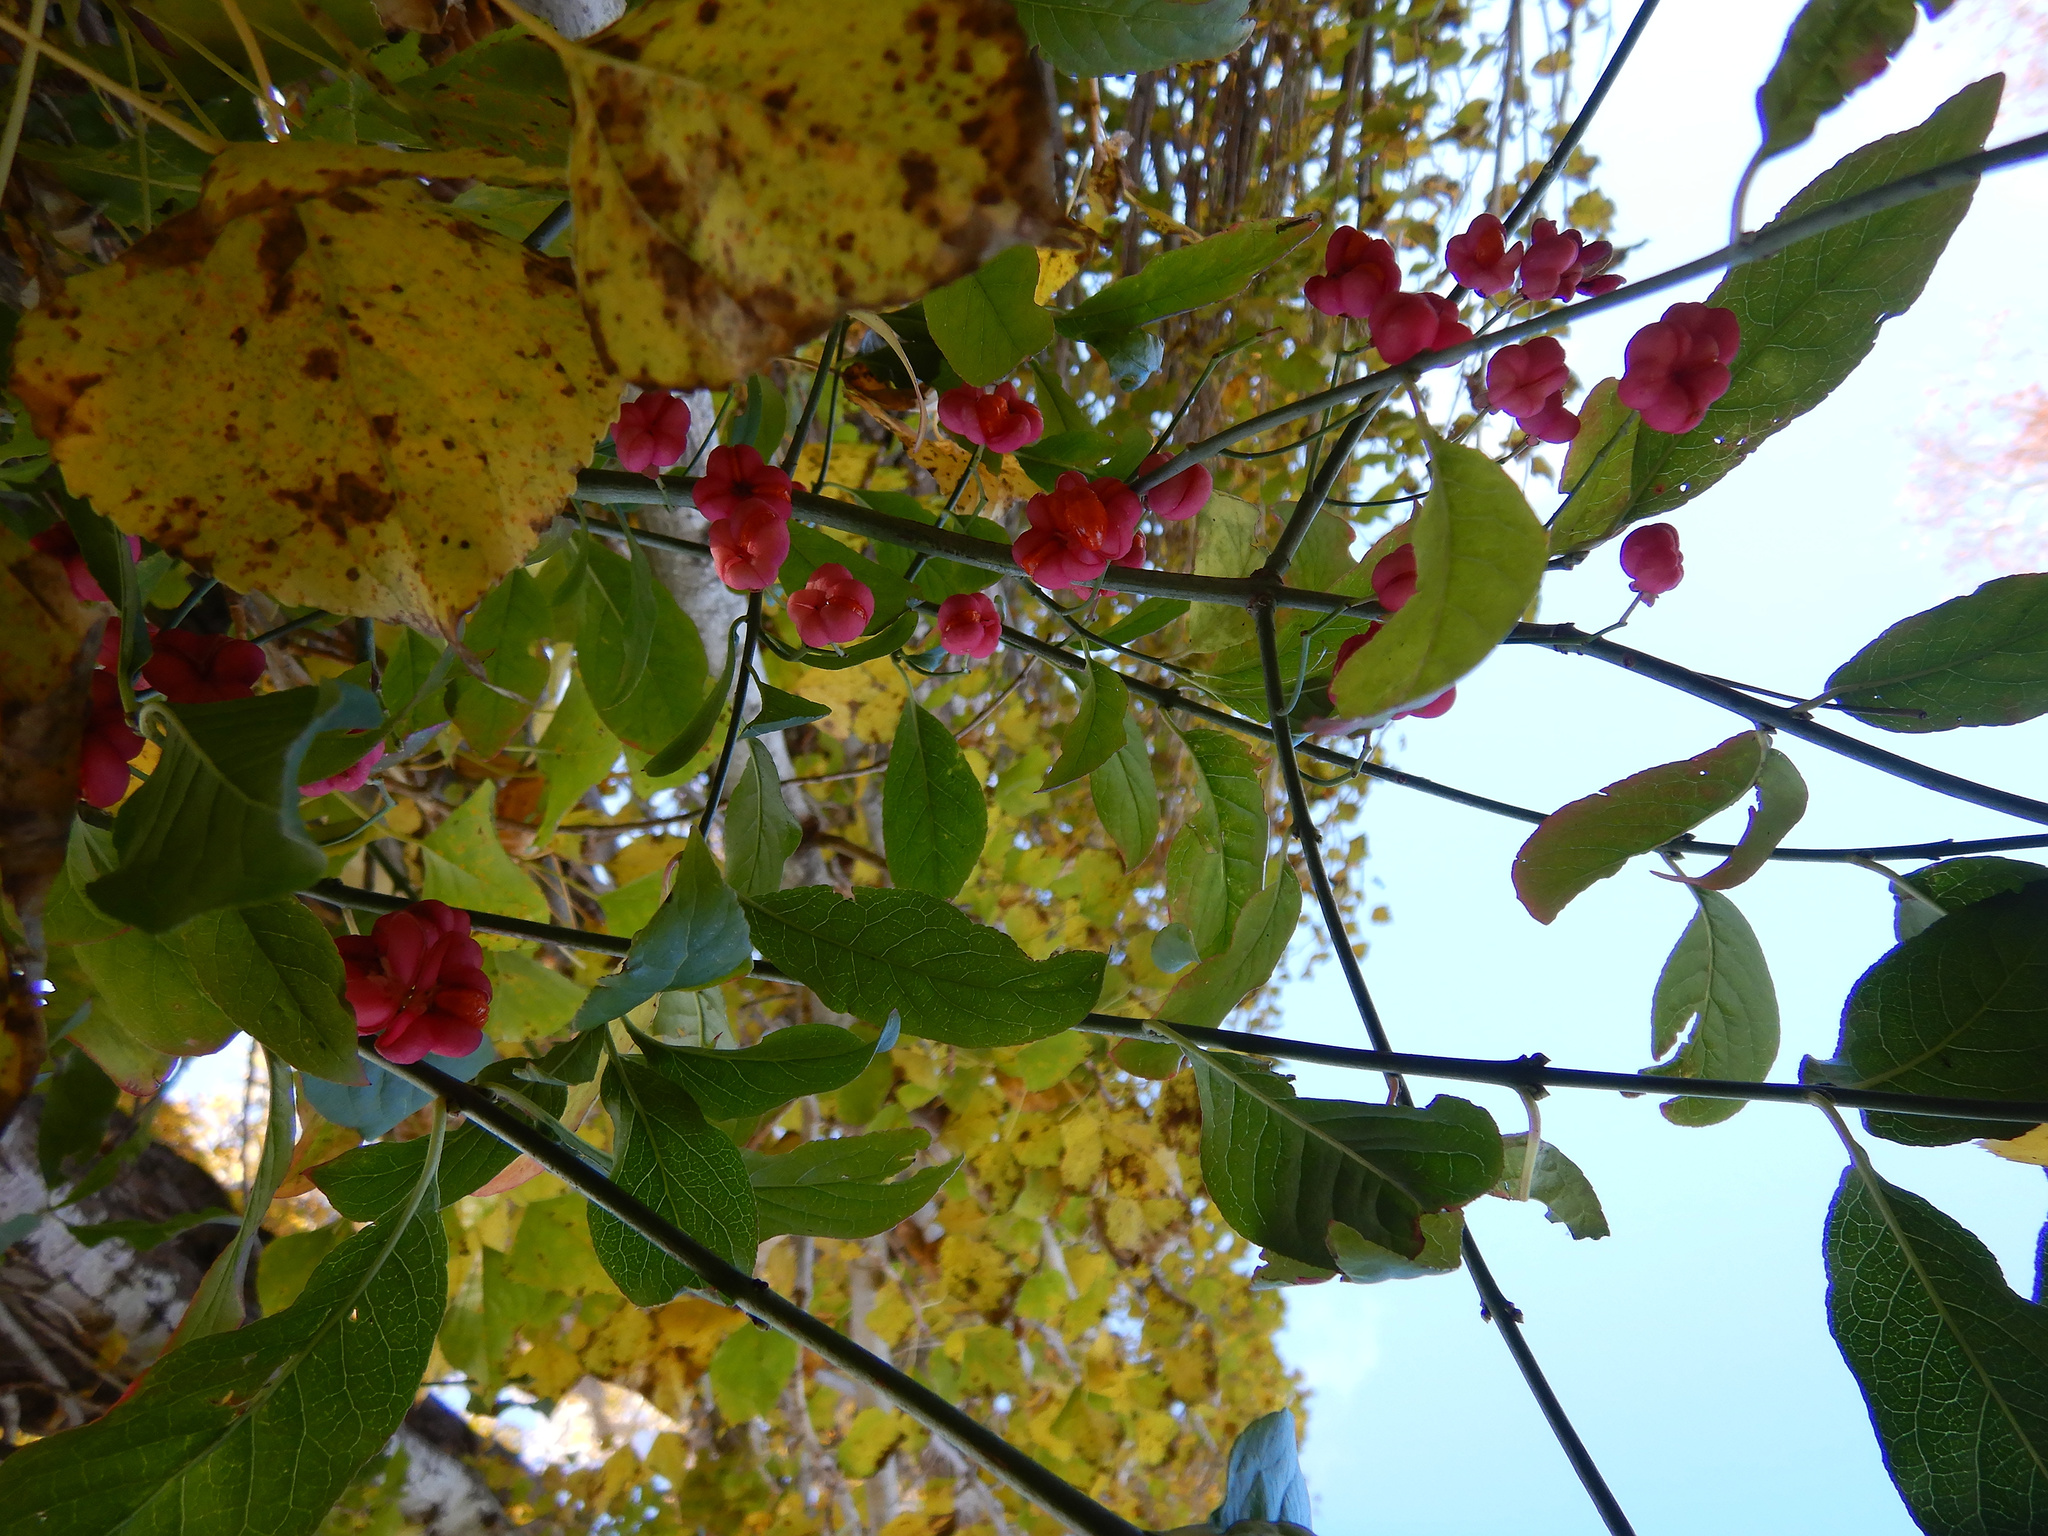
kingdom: Plantae
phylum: Tracheophyta
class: Magnoliopsida
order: Celastrales
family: Celastraceae
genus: Euonymus
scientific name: Euonymus europaeus
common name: Spindle
